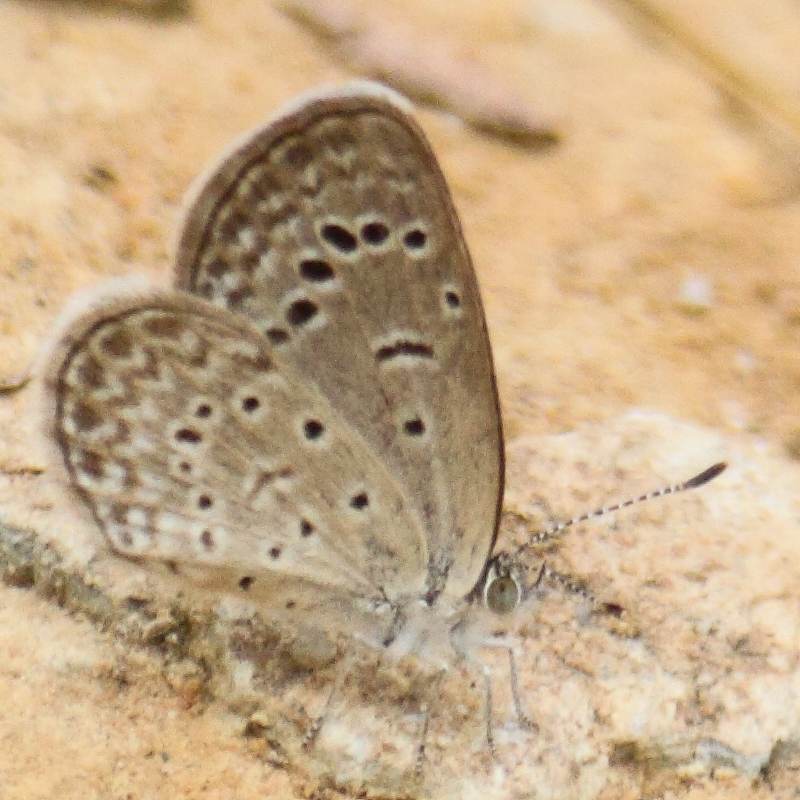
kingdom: Animalia
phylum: Arthropoda
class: Insecta
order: Lepidoptera
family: Lycaenidae
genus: Zizeeria
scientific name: Zizeeria karsandra
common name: Dark grass blue
